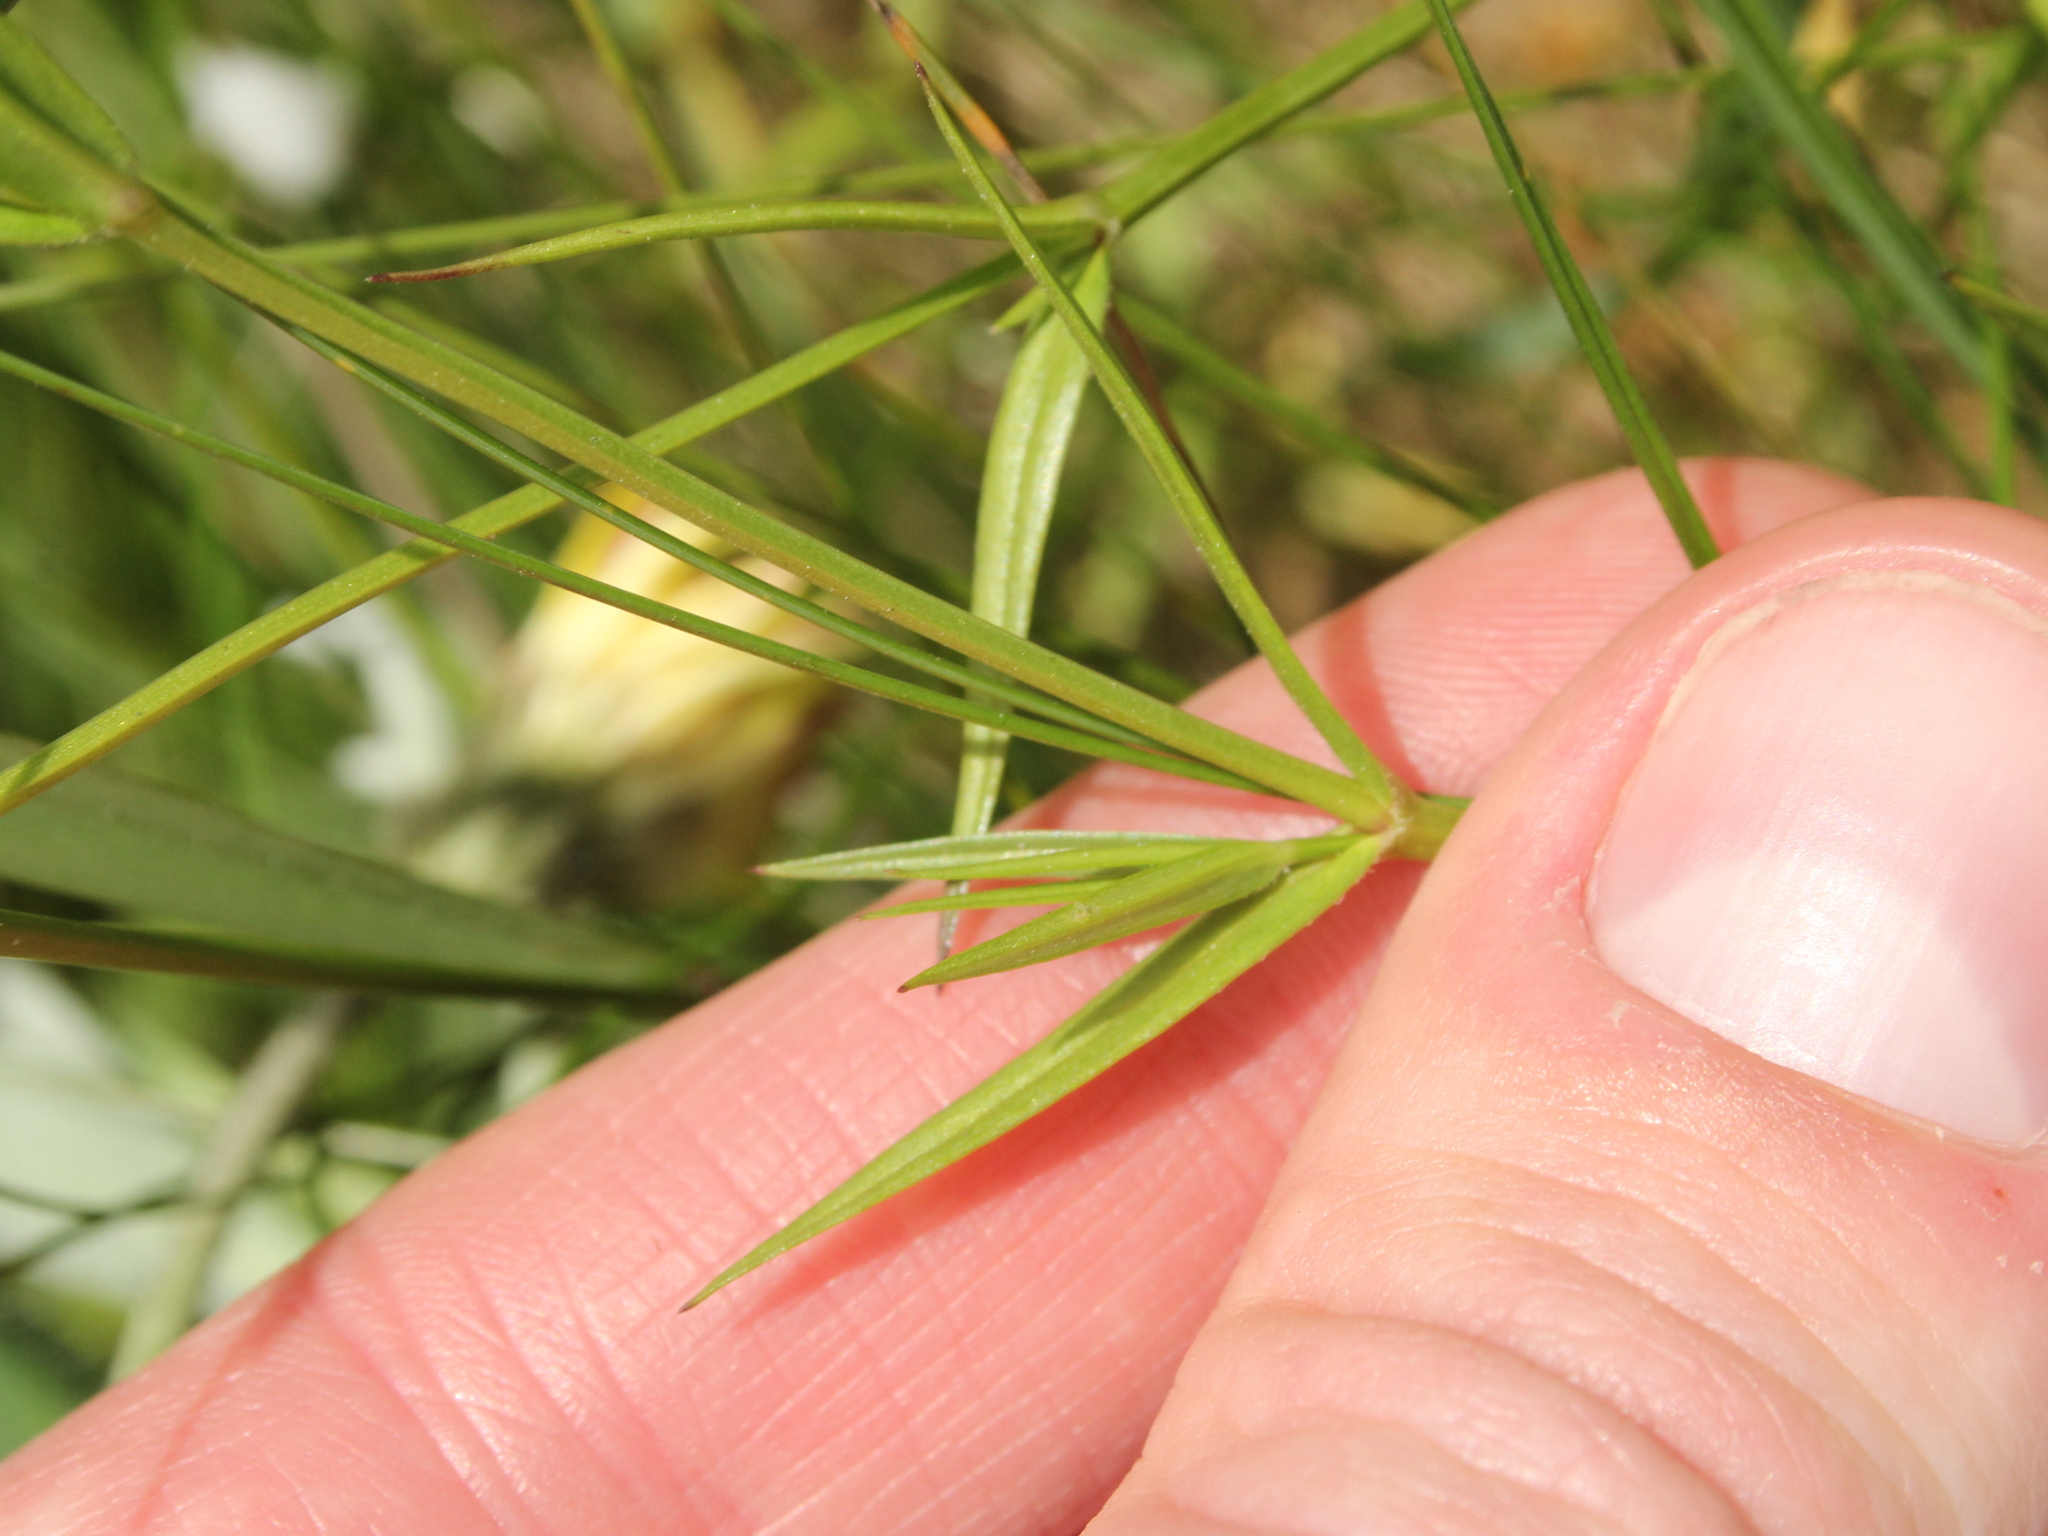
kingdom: Plantae
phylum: Tracheophyta
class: Magnoliopsida
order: Caryophyllales
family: Caryophyllaceae
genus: Stellaria
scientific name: Stellaria graminea
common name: Grass-like starwort
